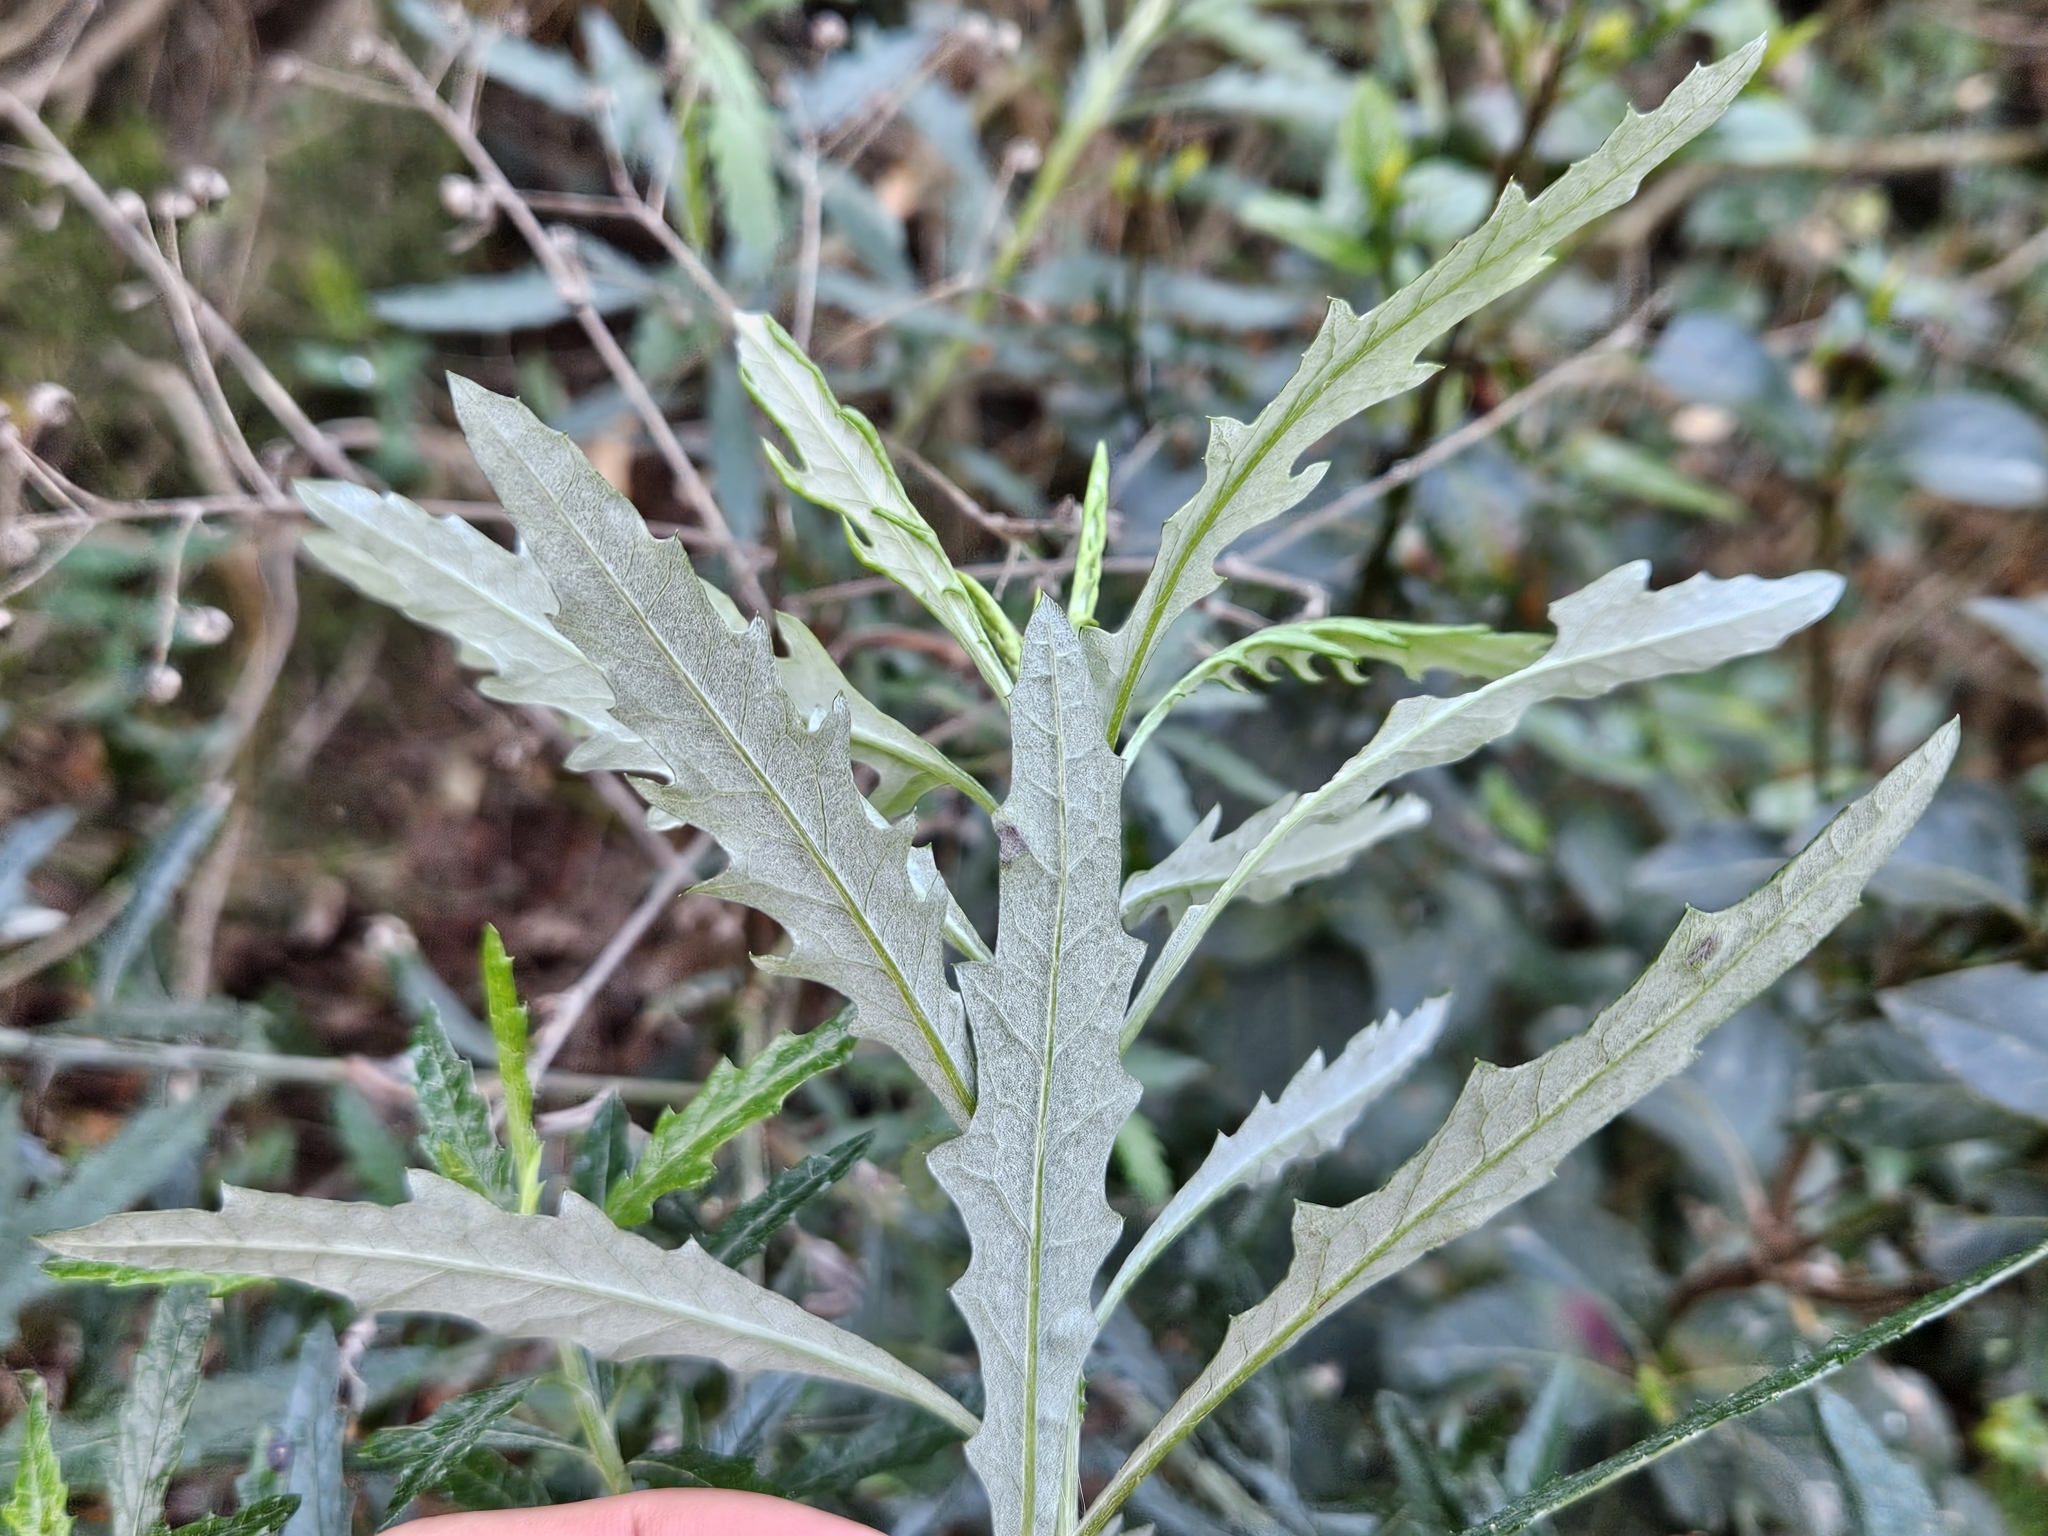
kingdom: Plantae
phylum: Tracheophyta
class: Magnoliopsida
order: Asterales
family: Asteraceae
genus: Senecio
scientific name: Senecio pterophorus
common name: Shoddy ragwort
